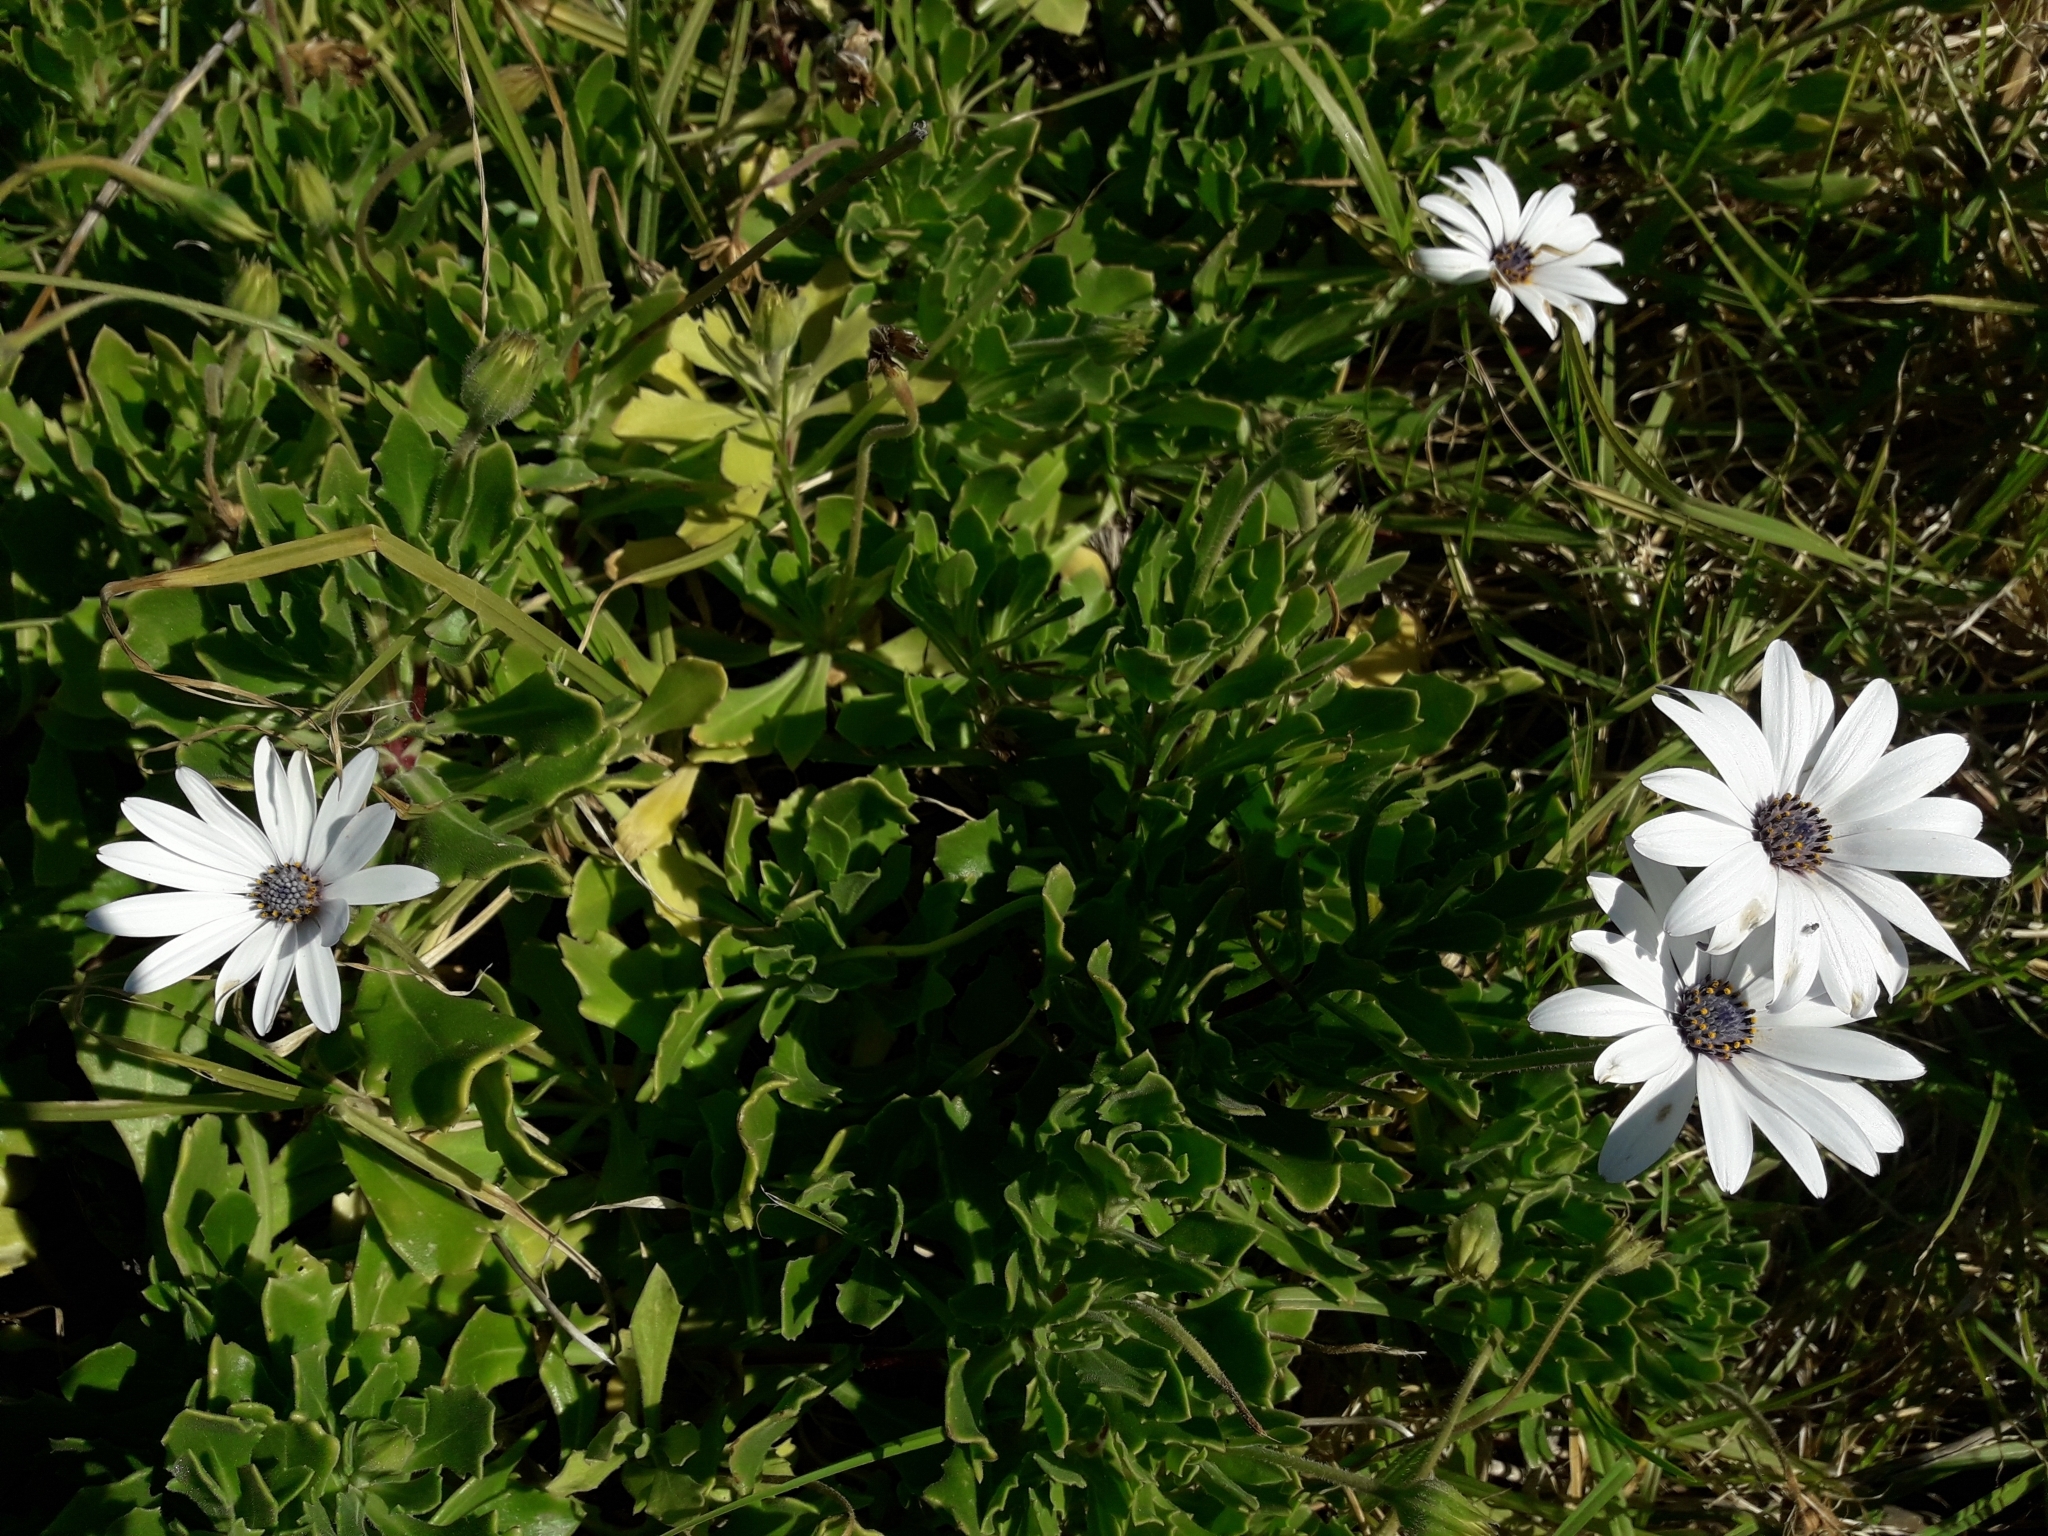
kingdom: Plantae
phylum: Tracheophyta
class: Magnoliopsida
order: Asterales
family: Asteraceae
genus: Dimorphotheca
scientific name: Dimorphotheca fruticosa
